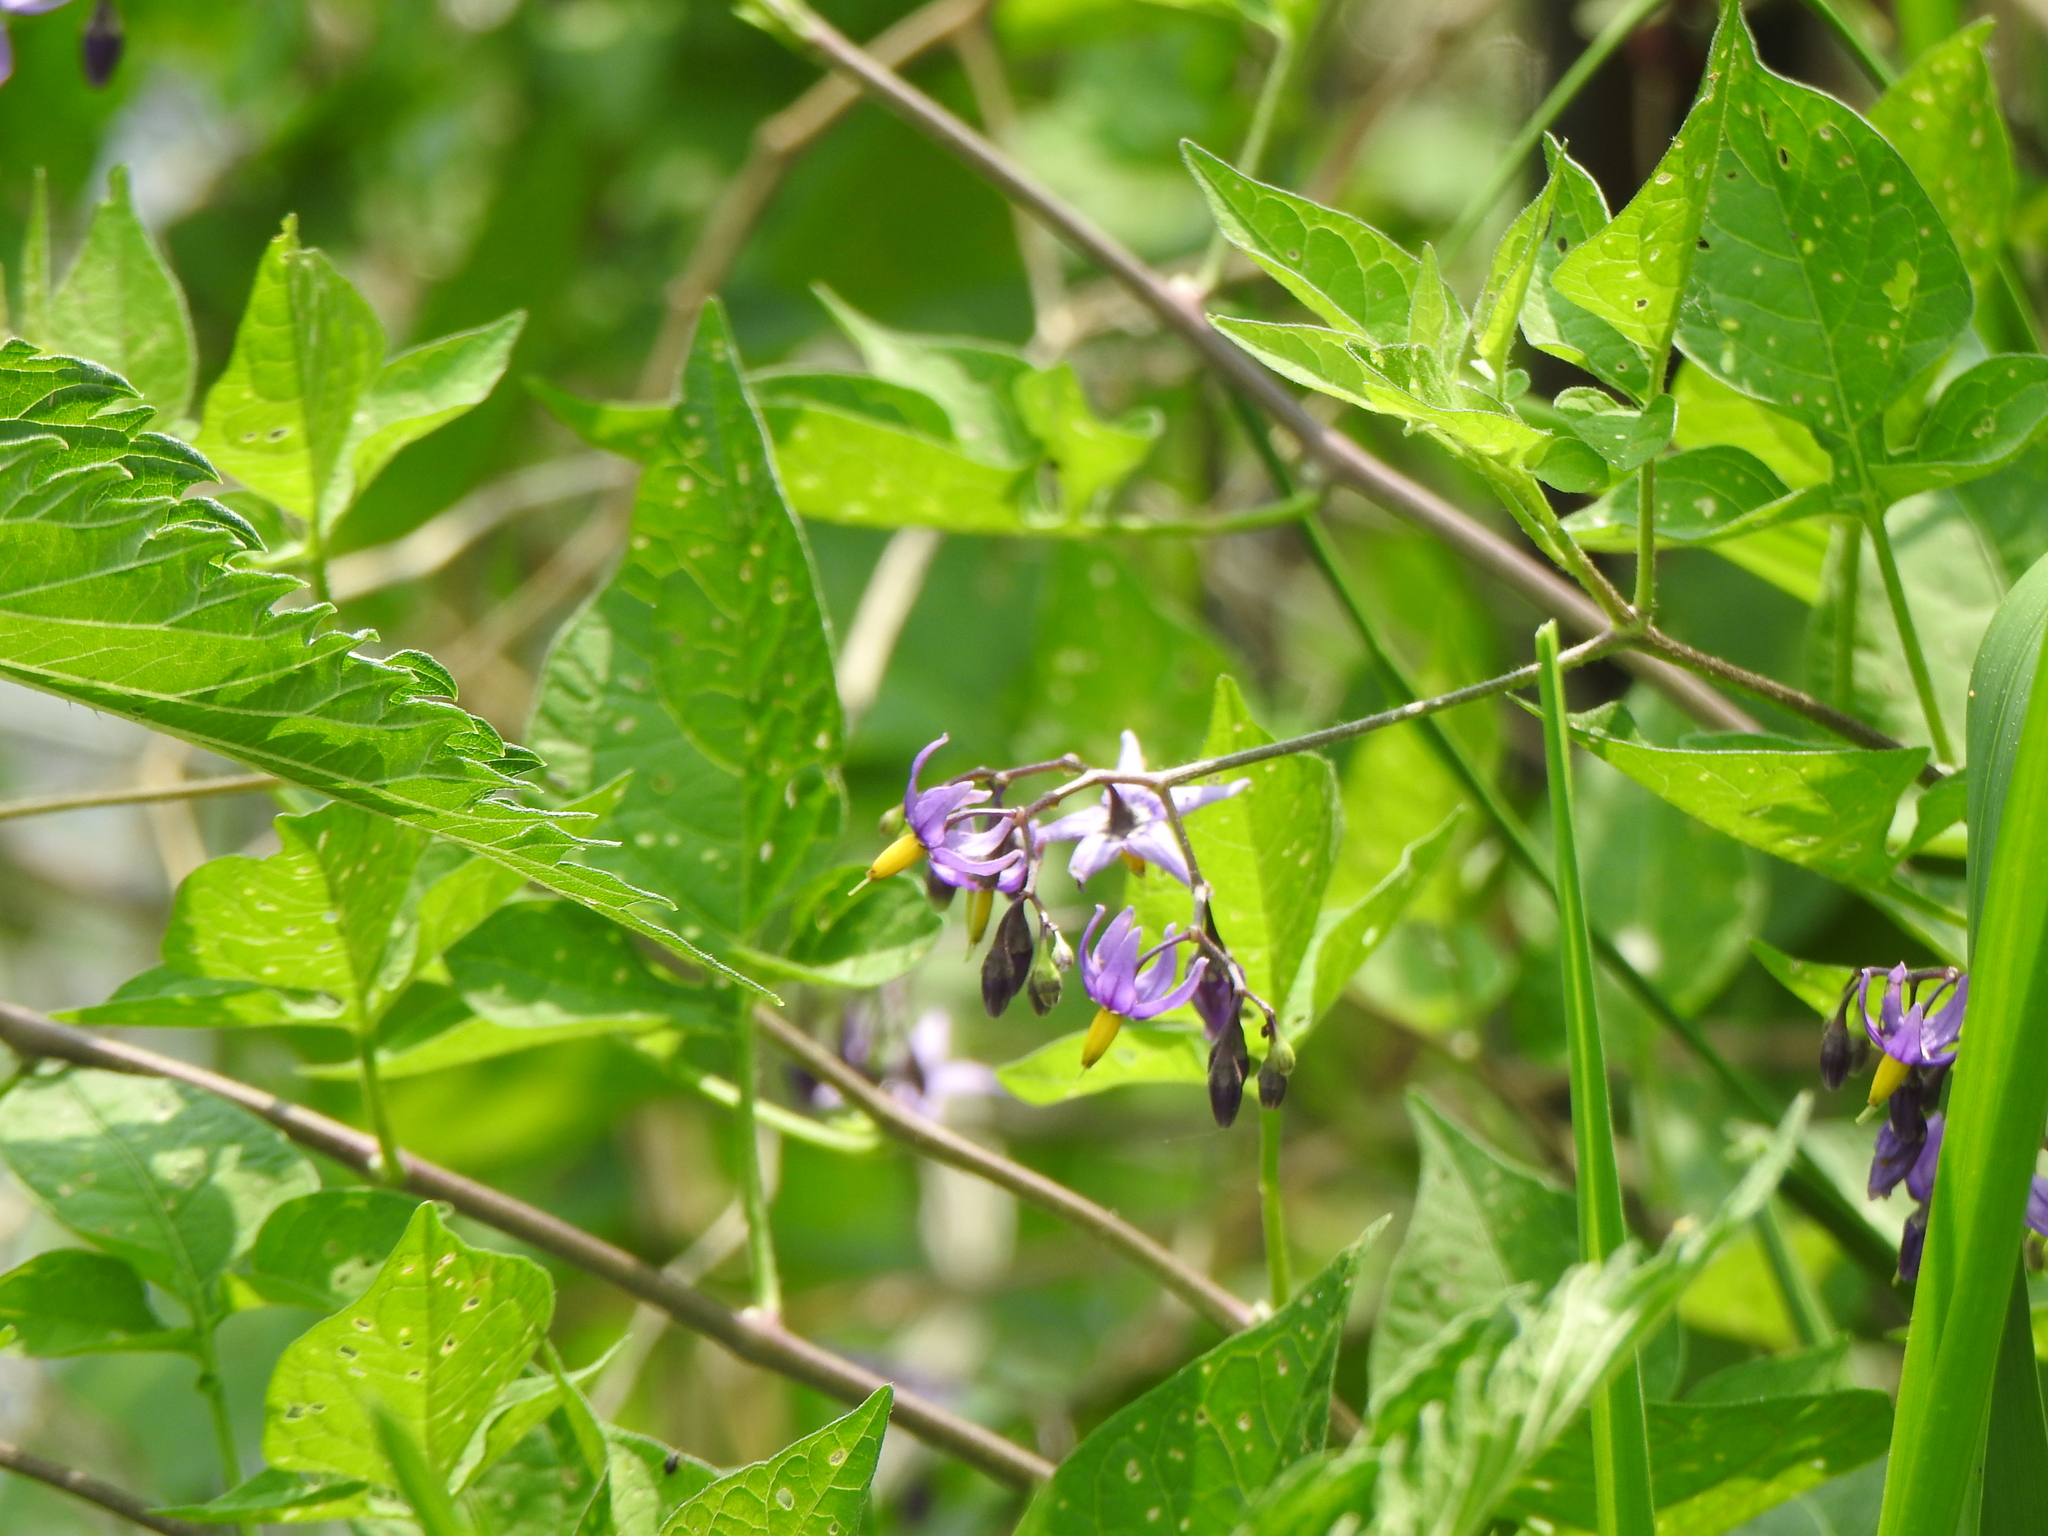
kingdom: Plantae
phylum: Tracheophyta
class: Magnoliopsida
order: Solanales
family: Solanaceae
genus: Solanum
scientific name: Solanum dulcamara
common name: Climbing nightshade
